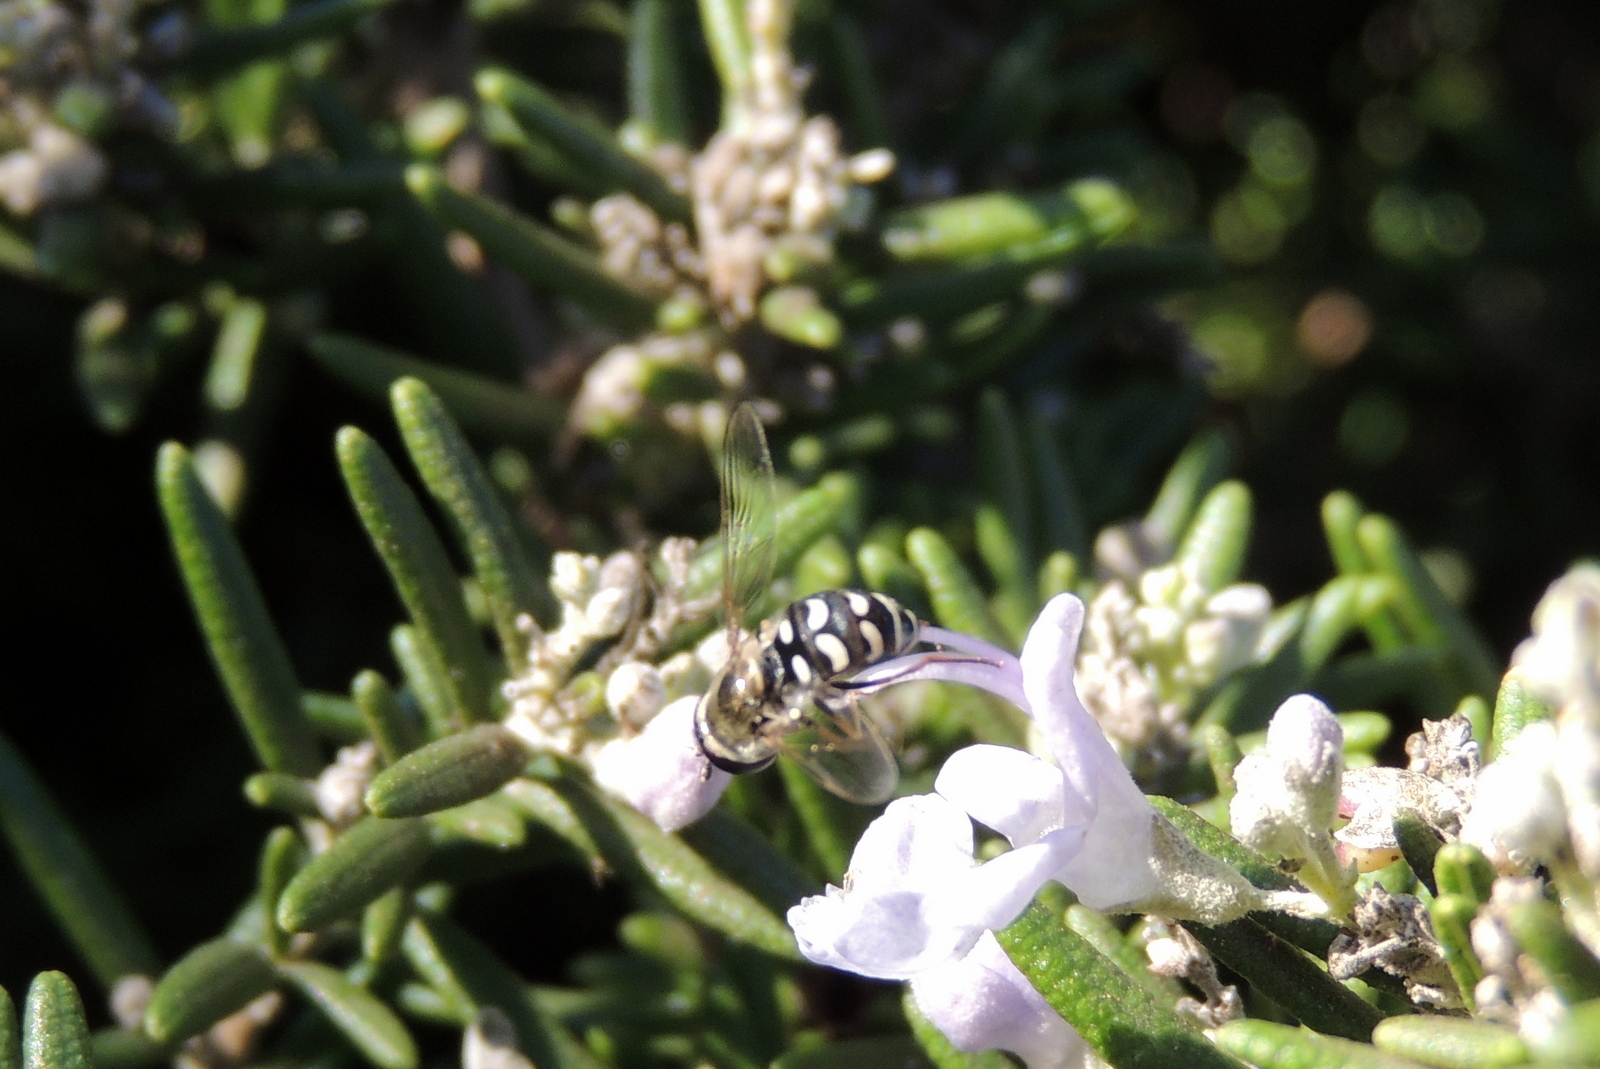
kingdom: Animalia
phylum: Arthropoda
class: Insecta
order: Diptera
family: Syrphidae
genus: Eupeodes
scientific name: Eupeodes volucris
